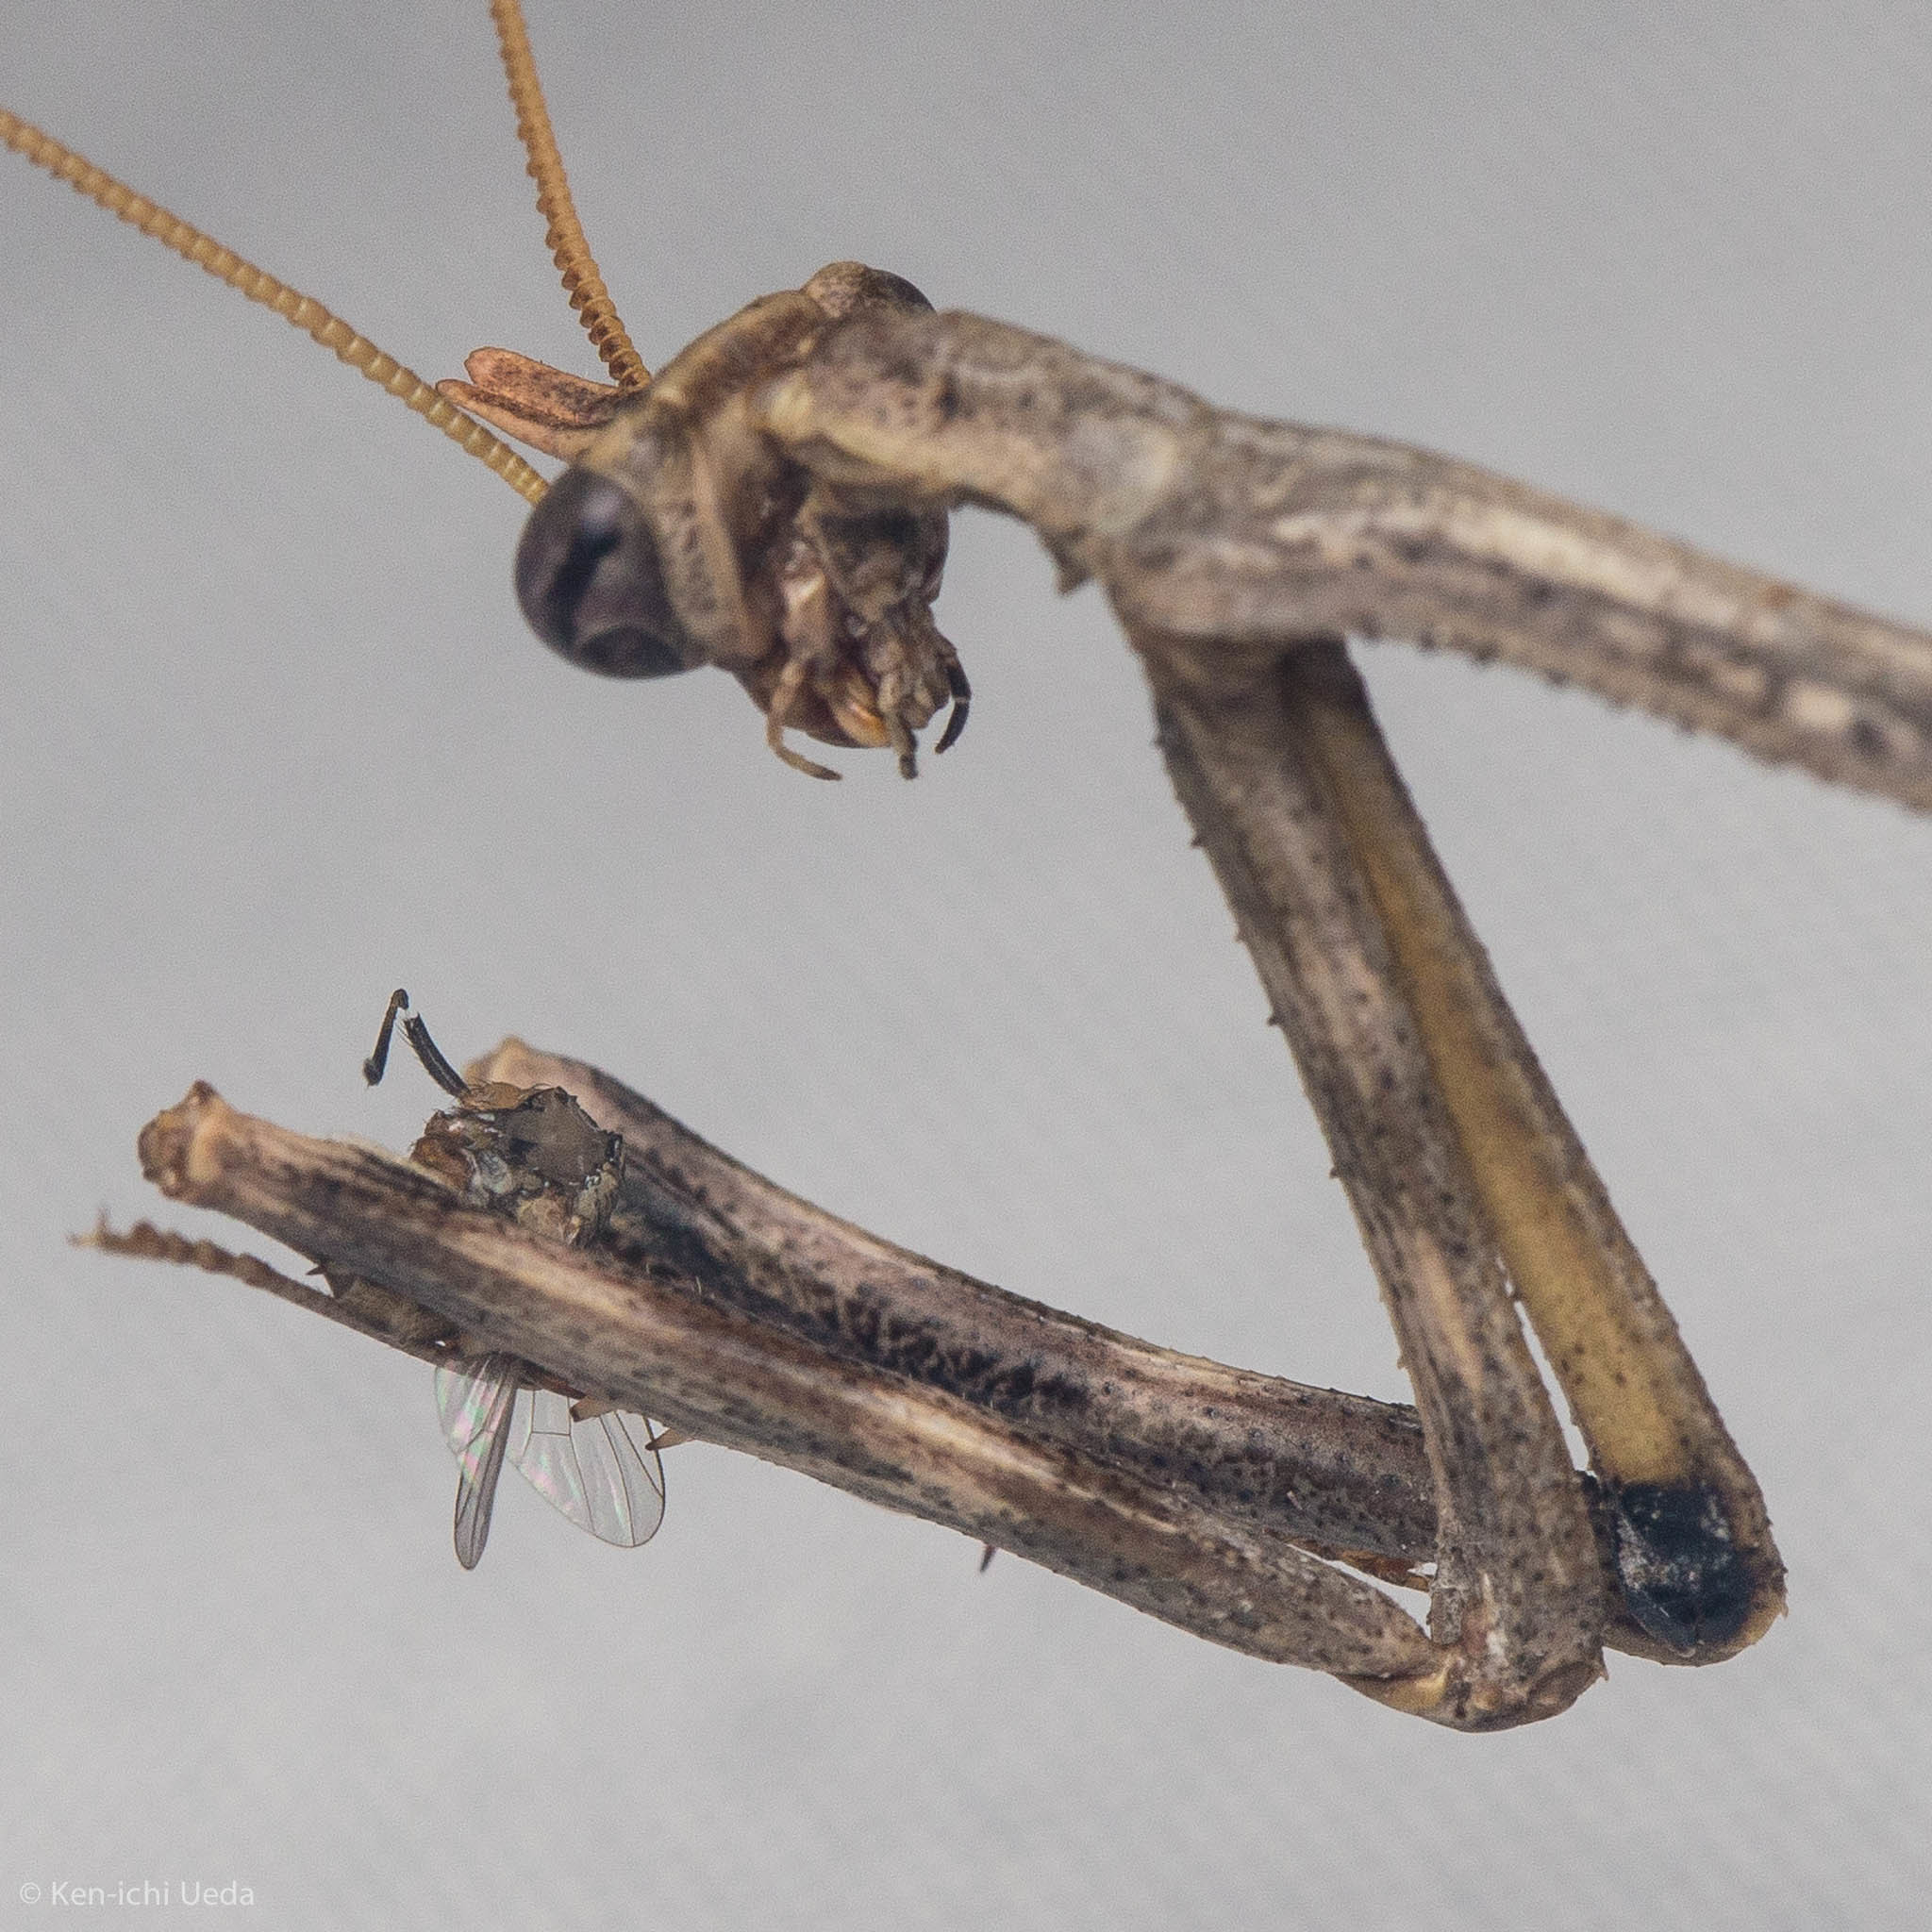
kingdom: Animalia
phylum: Arthropoda
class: Insecta
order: Mantodea
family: Mantidae
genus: Pseudovates
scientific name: Pseudovates chlorophaea
